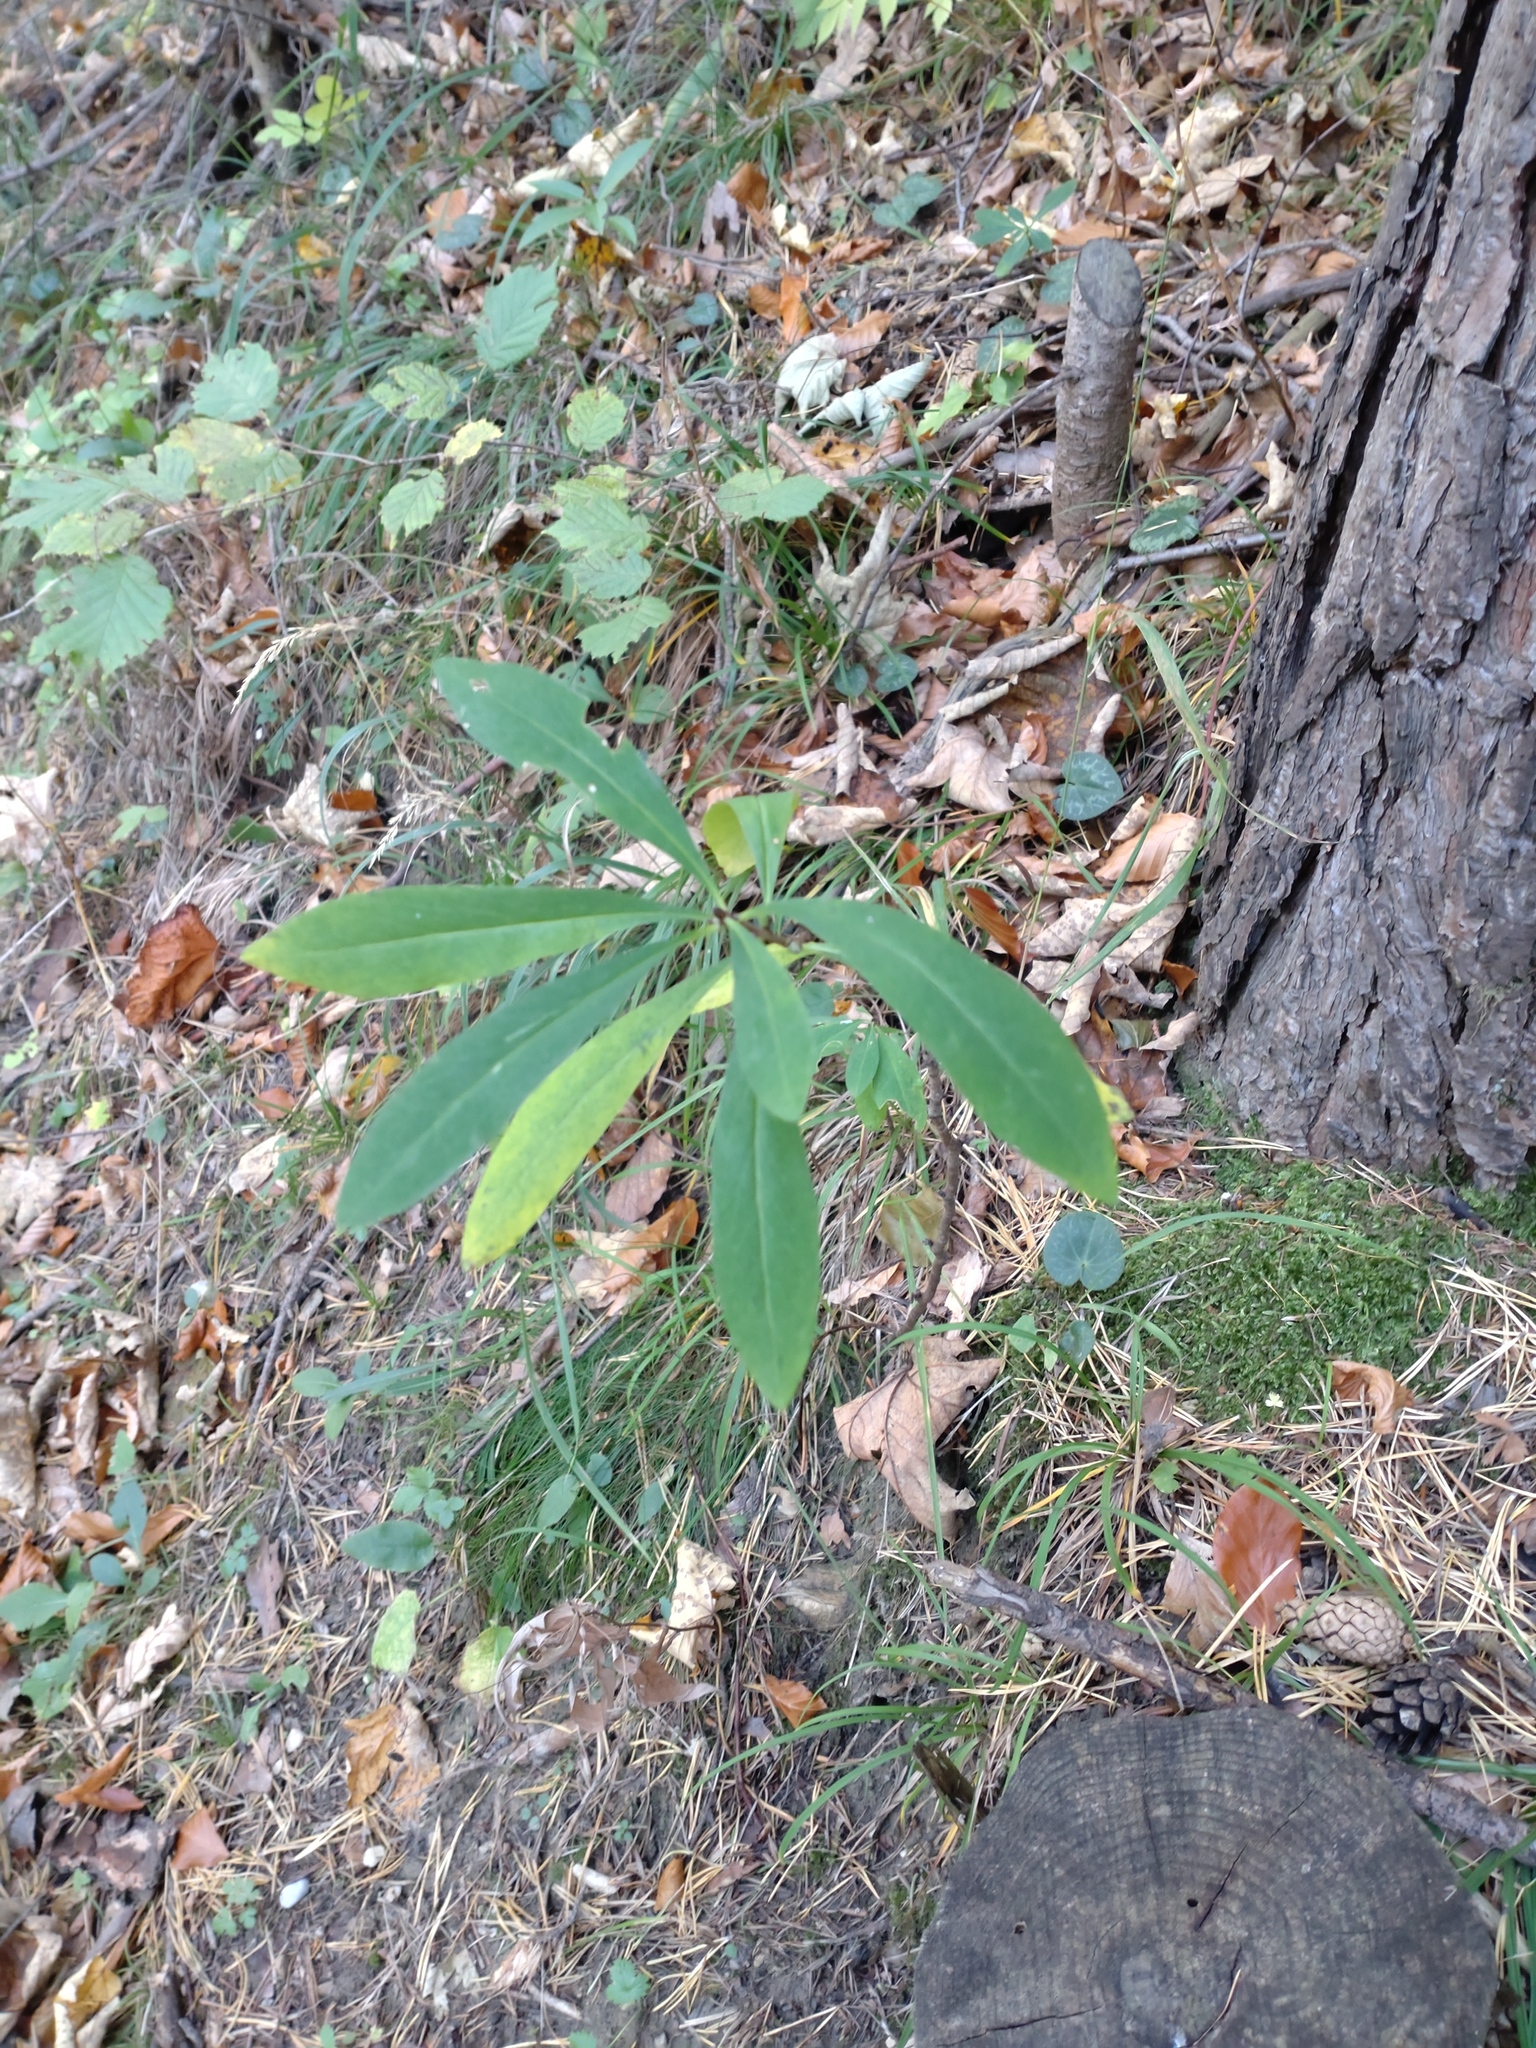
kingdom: Plantae
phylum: Tracheophyta
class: Magnoliopsida
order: Malvales
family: Thymelaeaceae
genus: Daphne
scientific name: Daphne mezereum
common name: Mezereon
